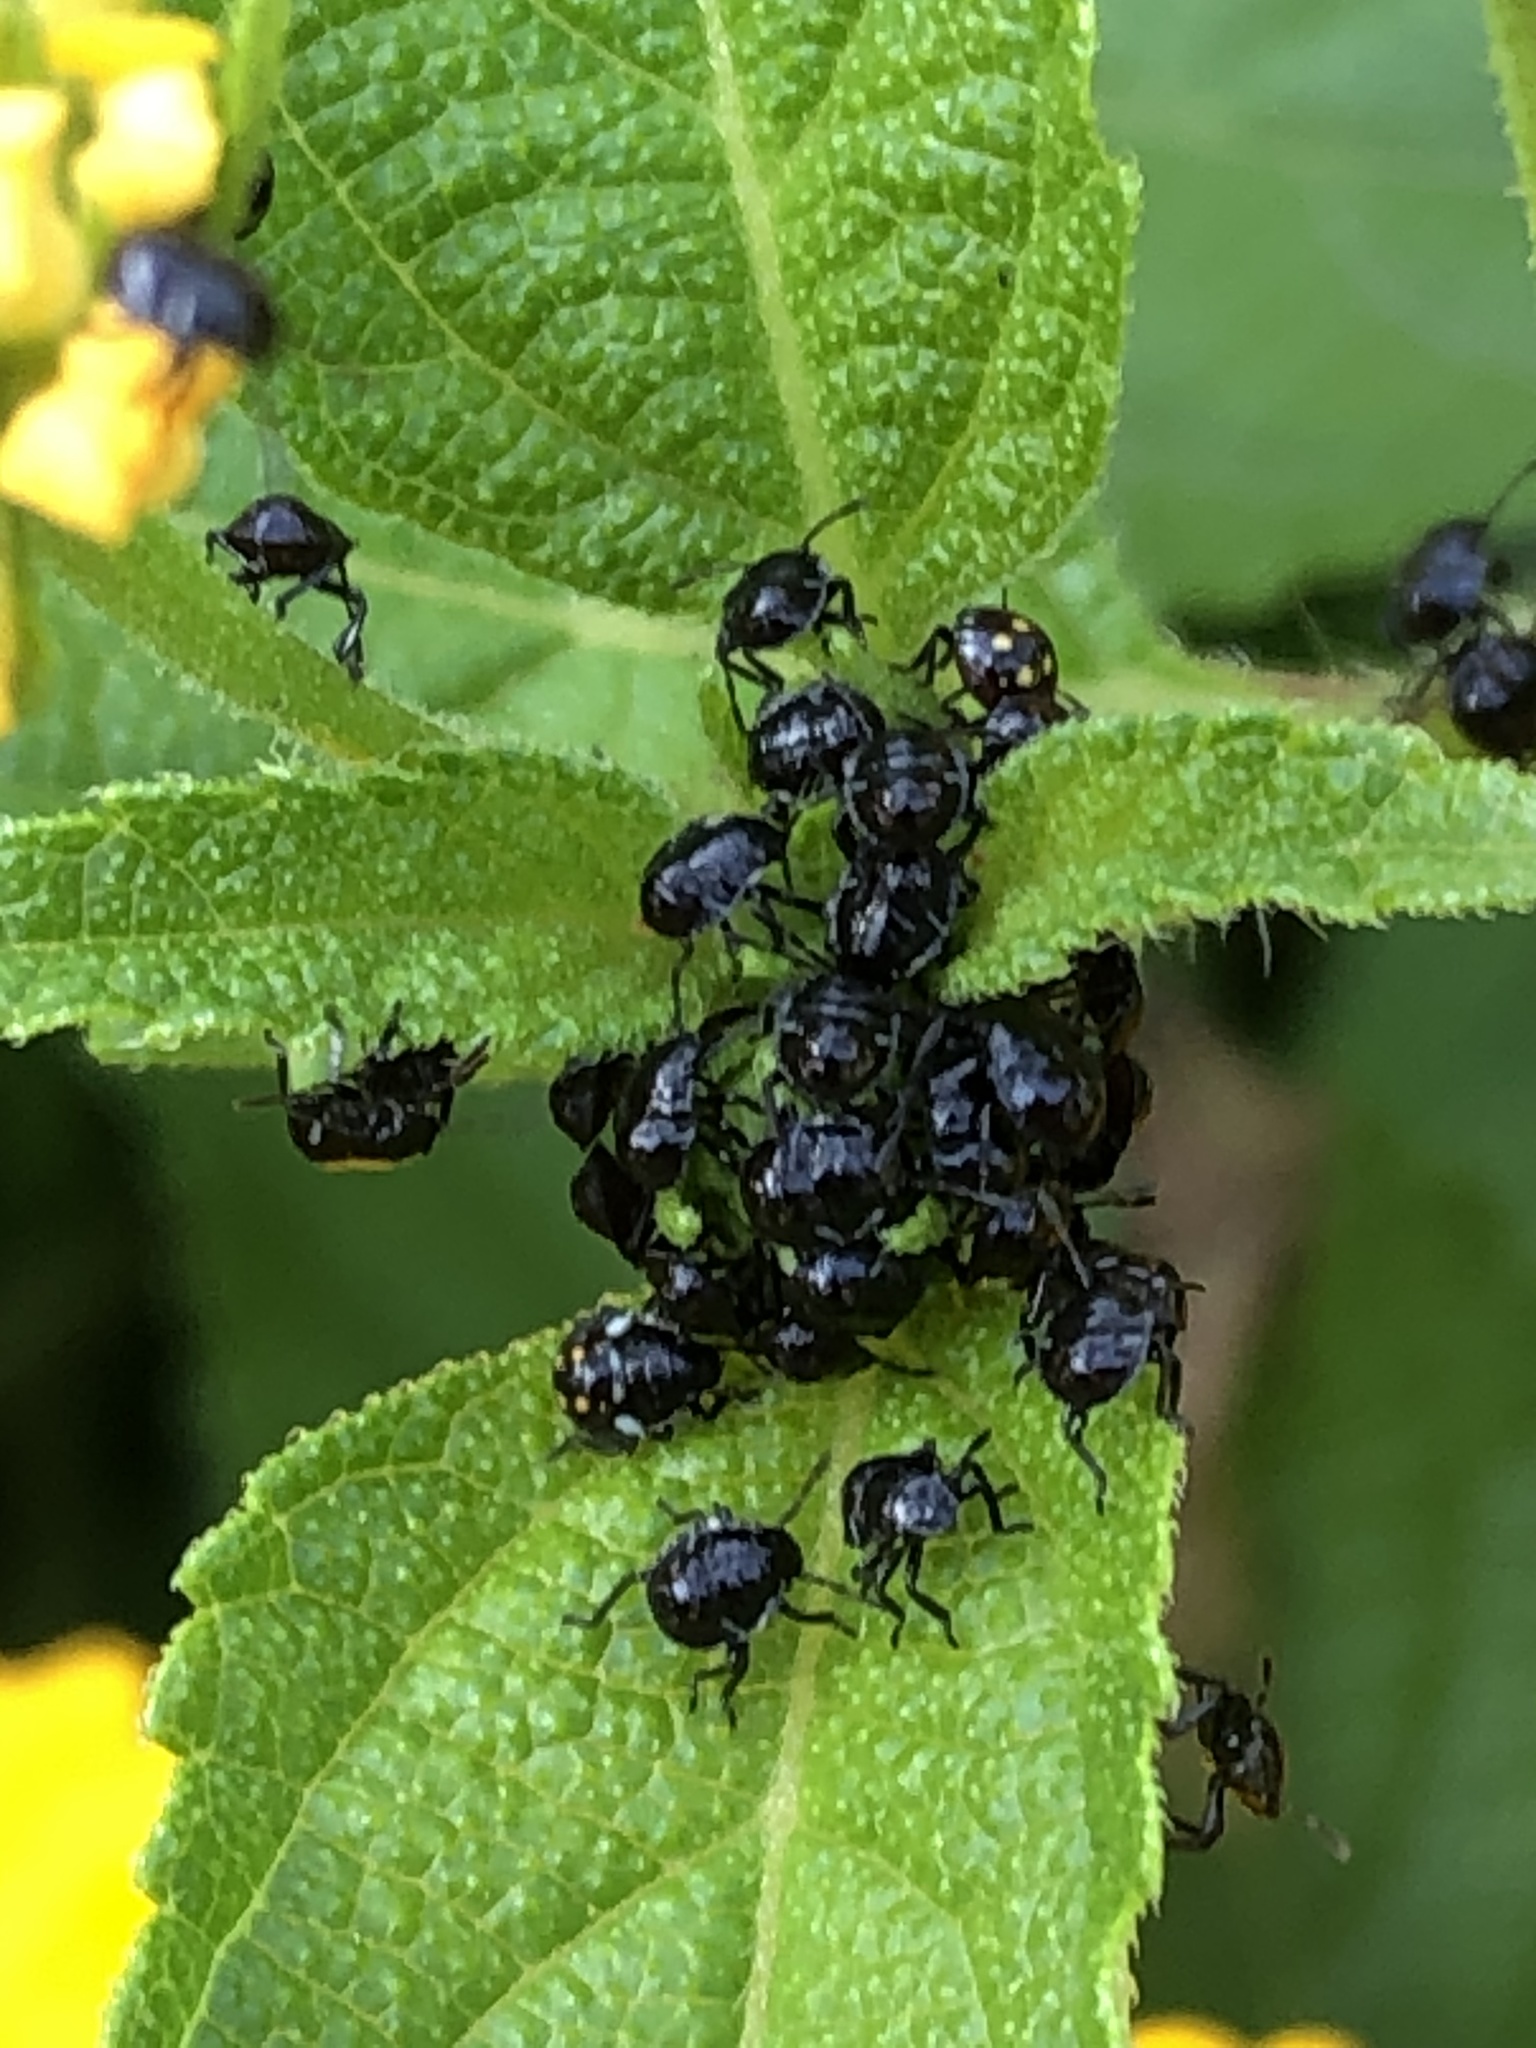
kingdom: Animalia
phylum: Arthropoda
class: Insecta
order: Hemiptera
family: Pentatomidae
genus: Nezara
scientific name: Nezara viridula
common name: Southern green stink bug
